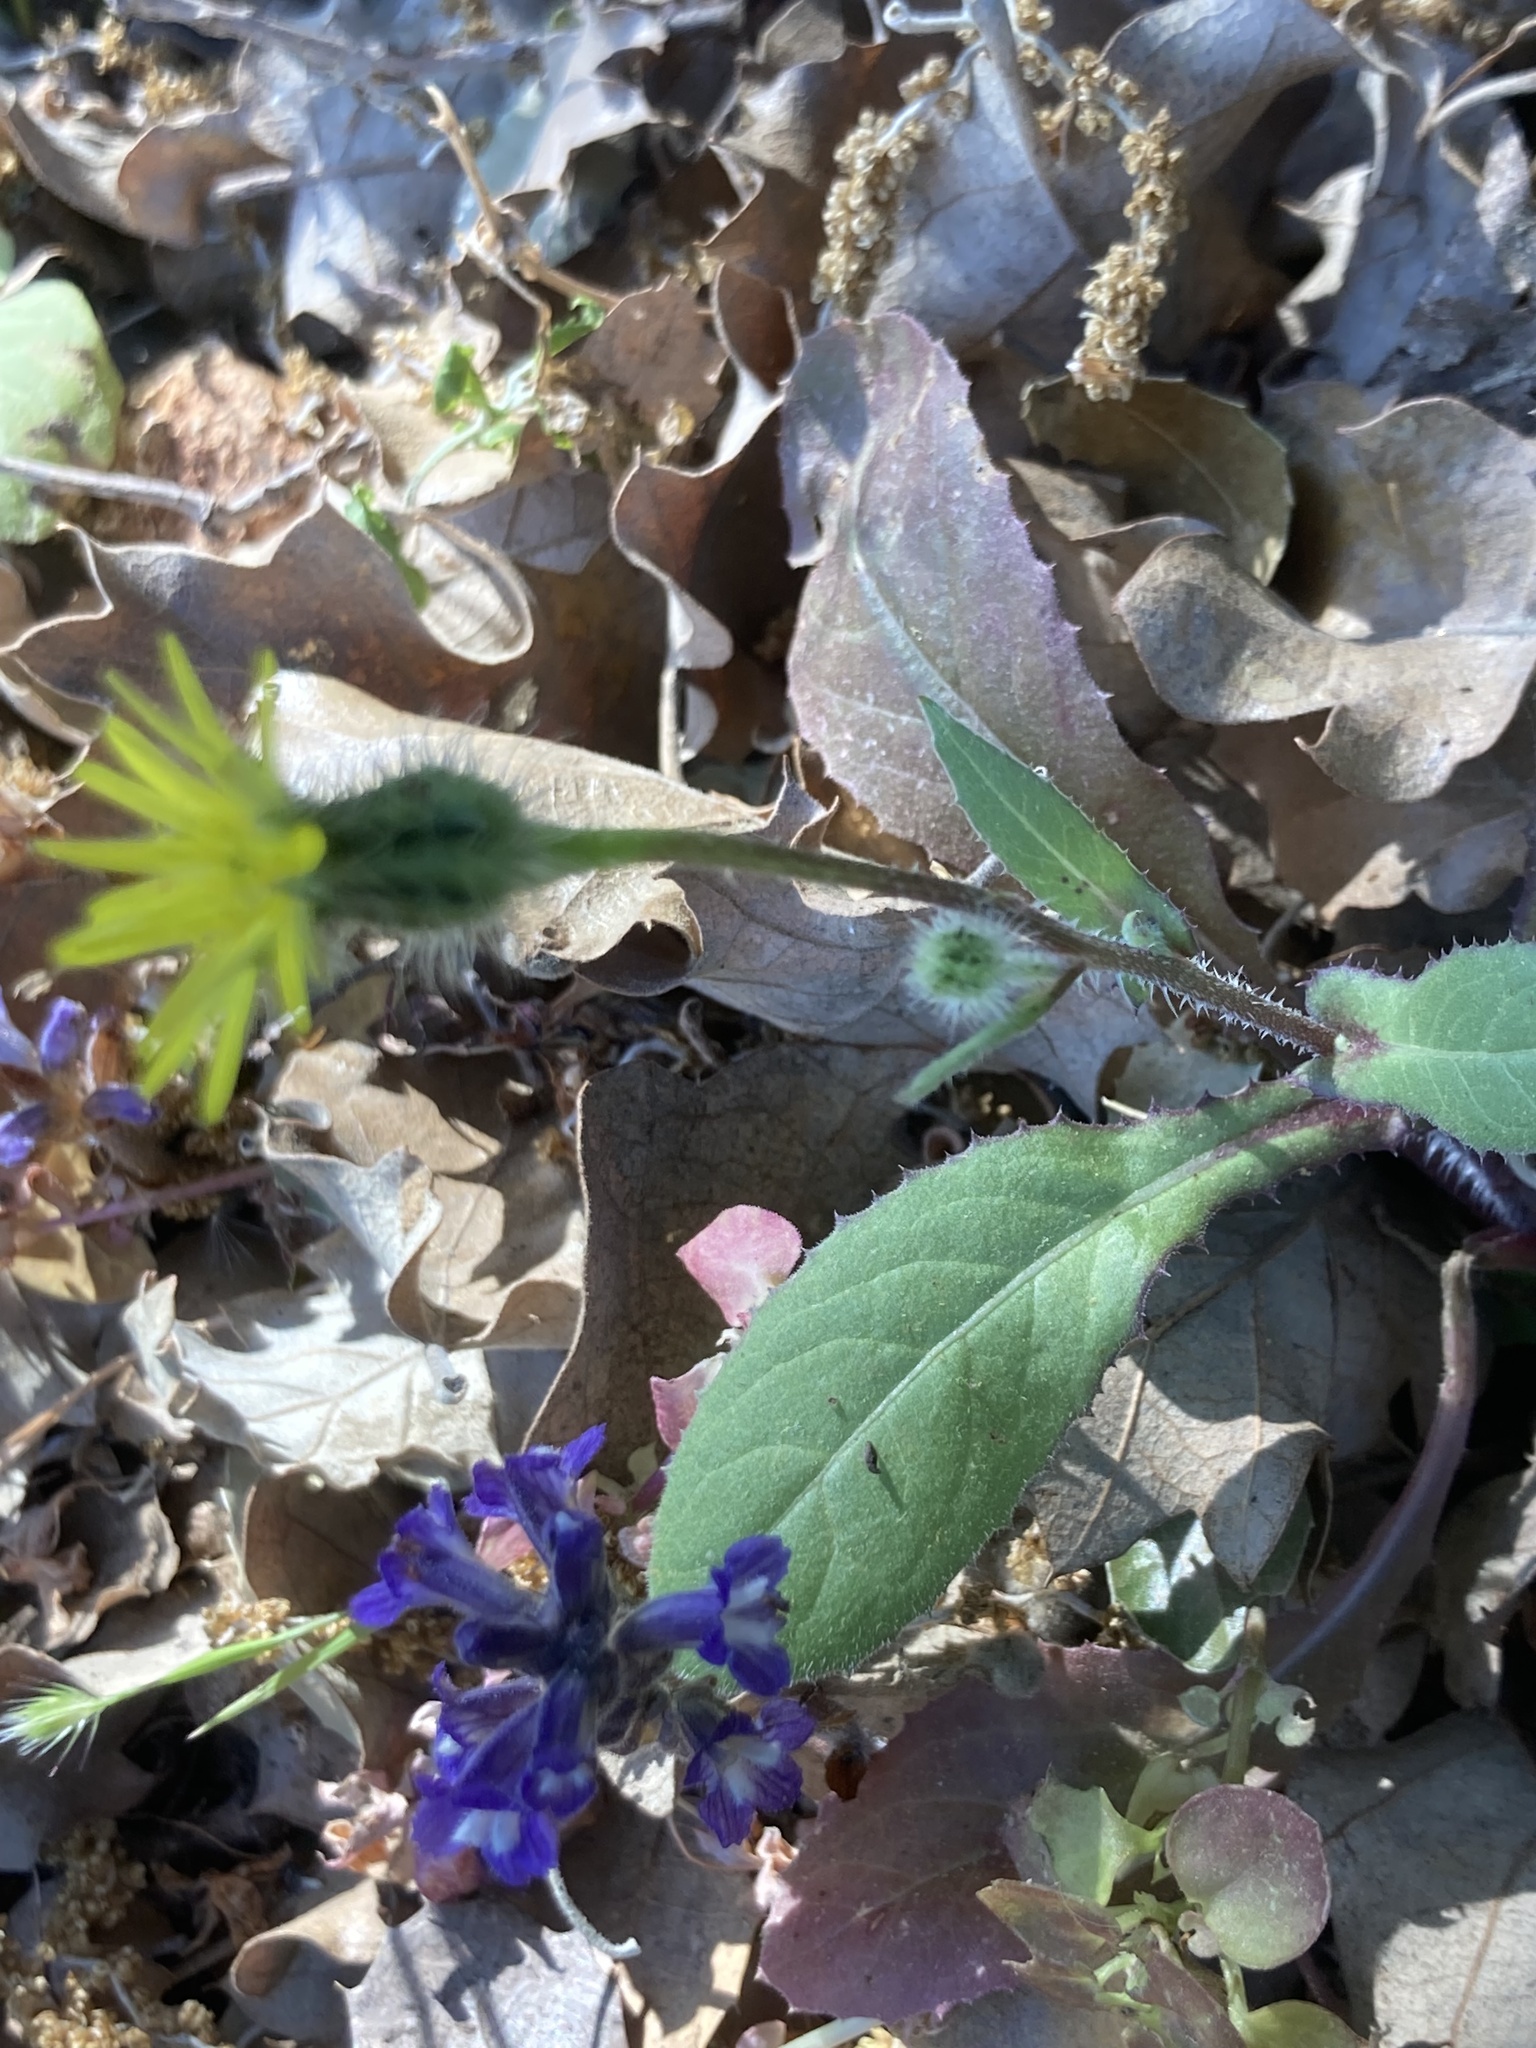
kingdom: Plantae
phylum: Tracheophyta
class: Magnoliopsida
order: Asterales
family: Asteraceae
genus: Urospermum
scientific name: Urospermum picroides
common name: False hawkbit
